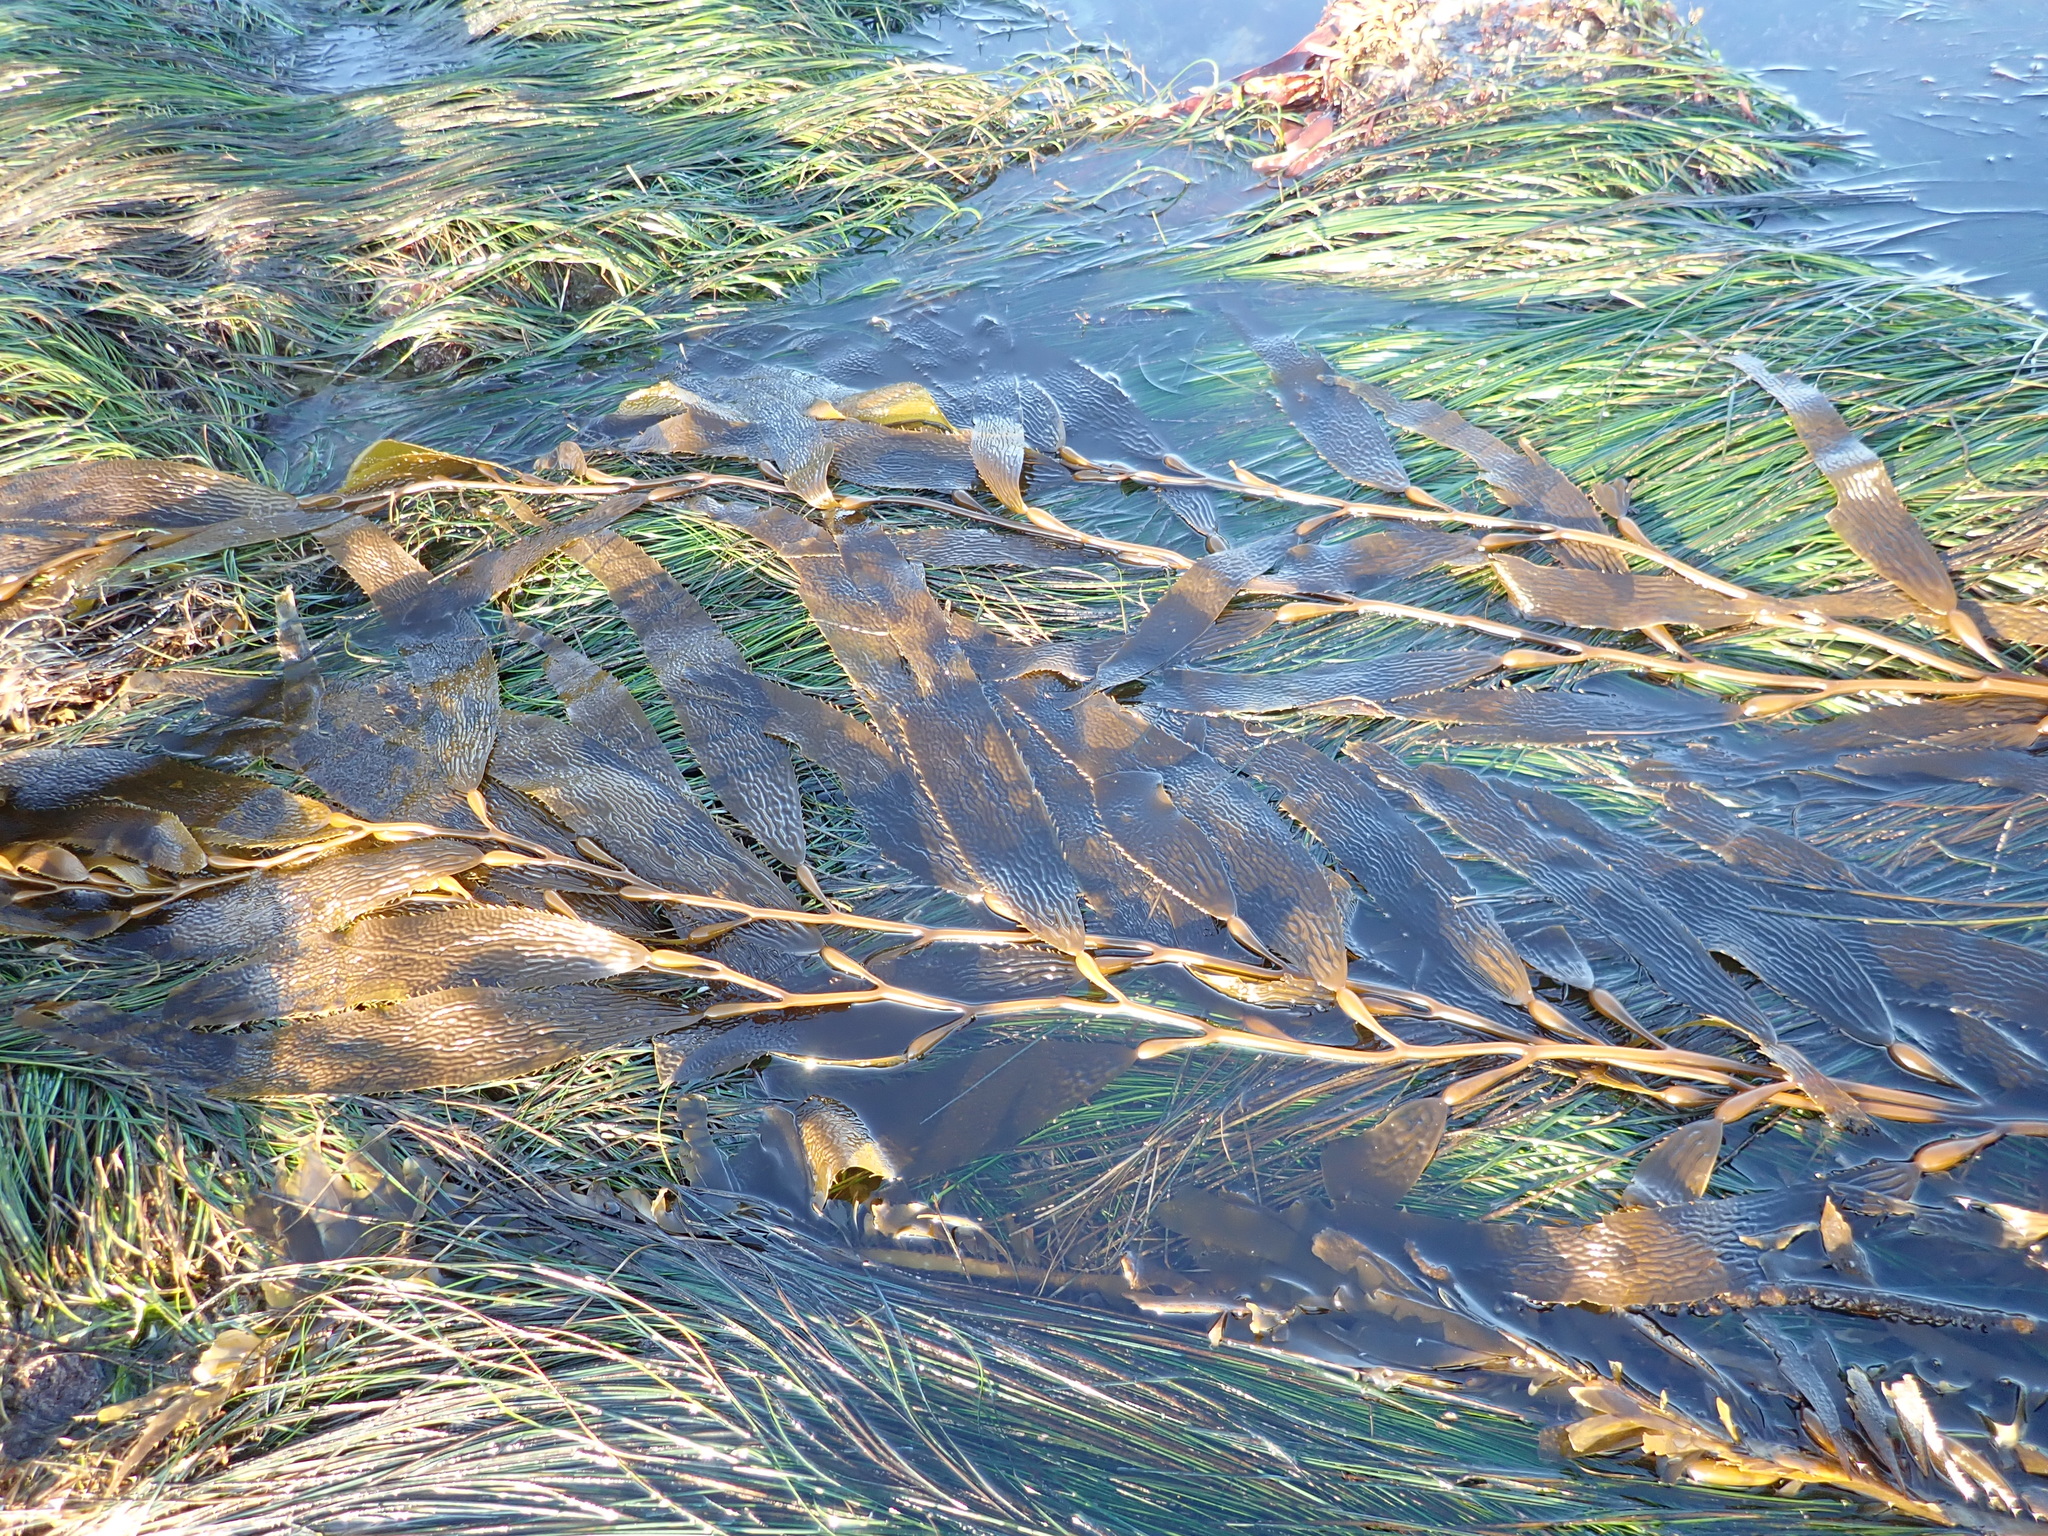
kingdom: Chromista
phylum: Ochrophyta
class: Phaeophyceae
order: Laminariales
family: Laminariaceae
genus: Macrocystis
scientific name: Macrocystis pyrifera
